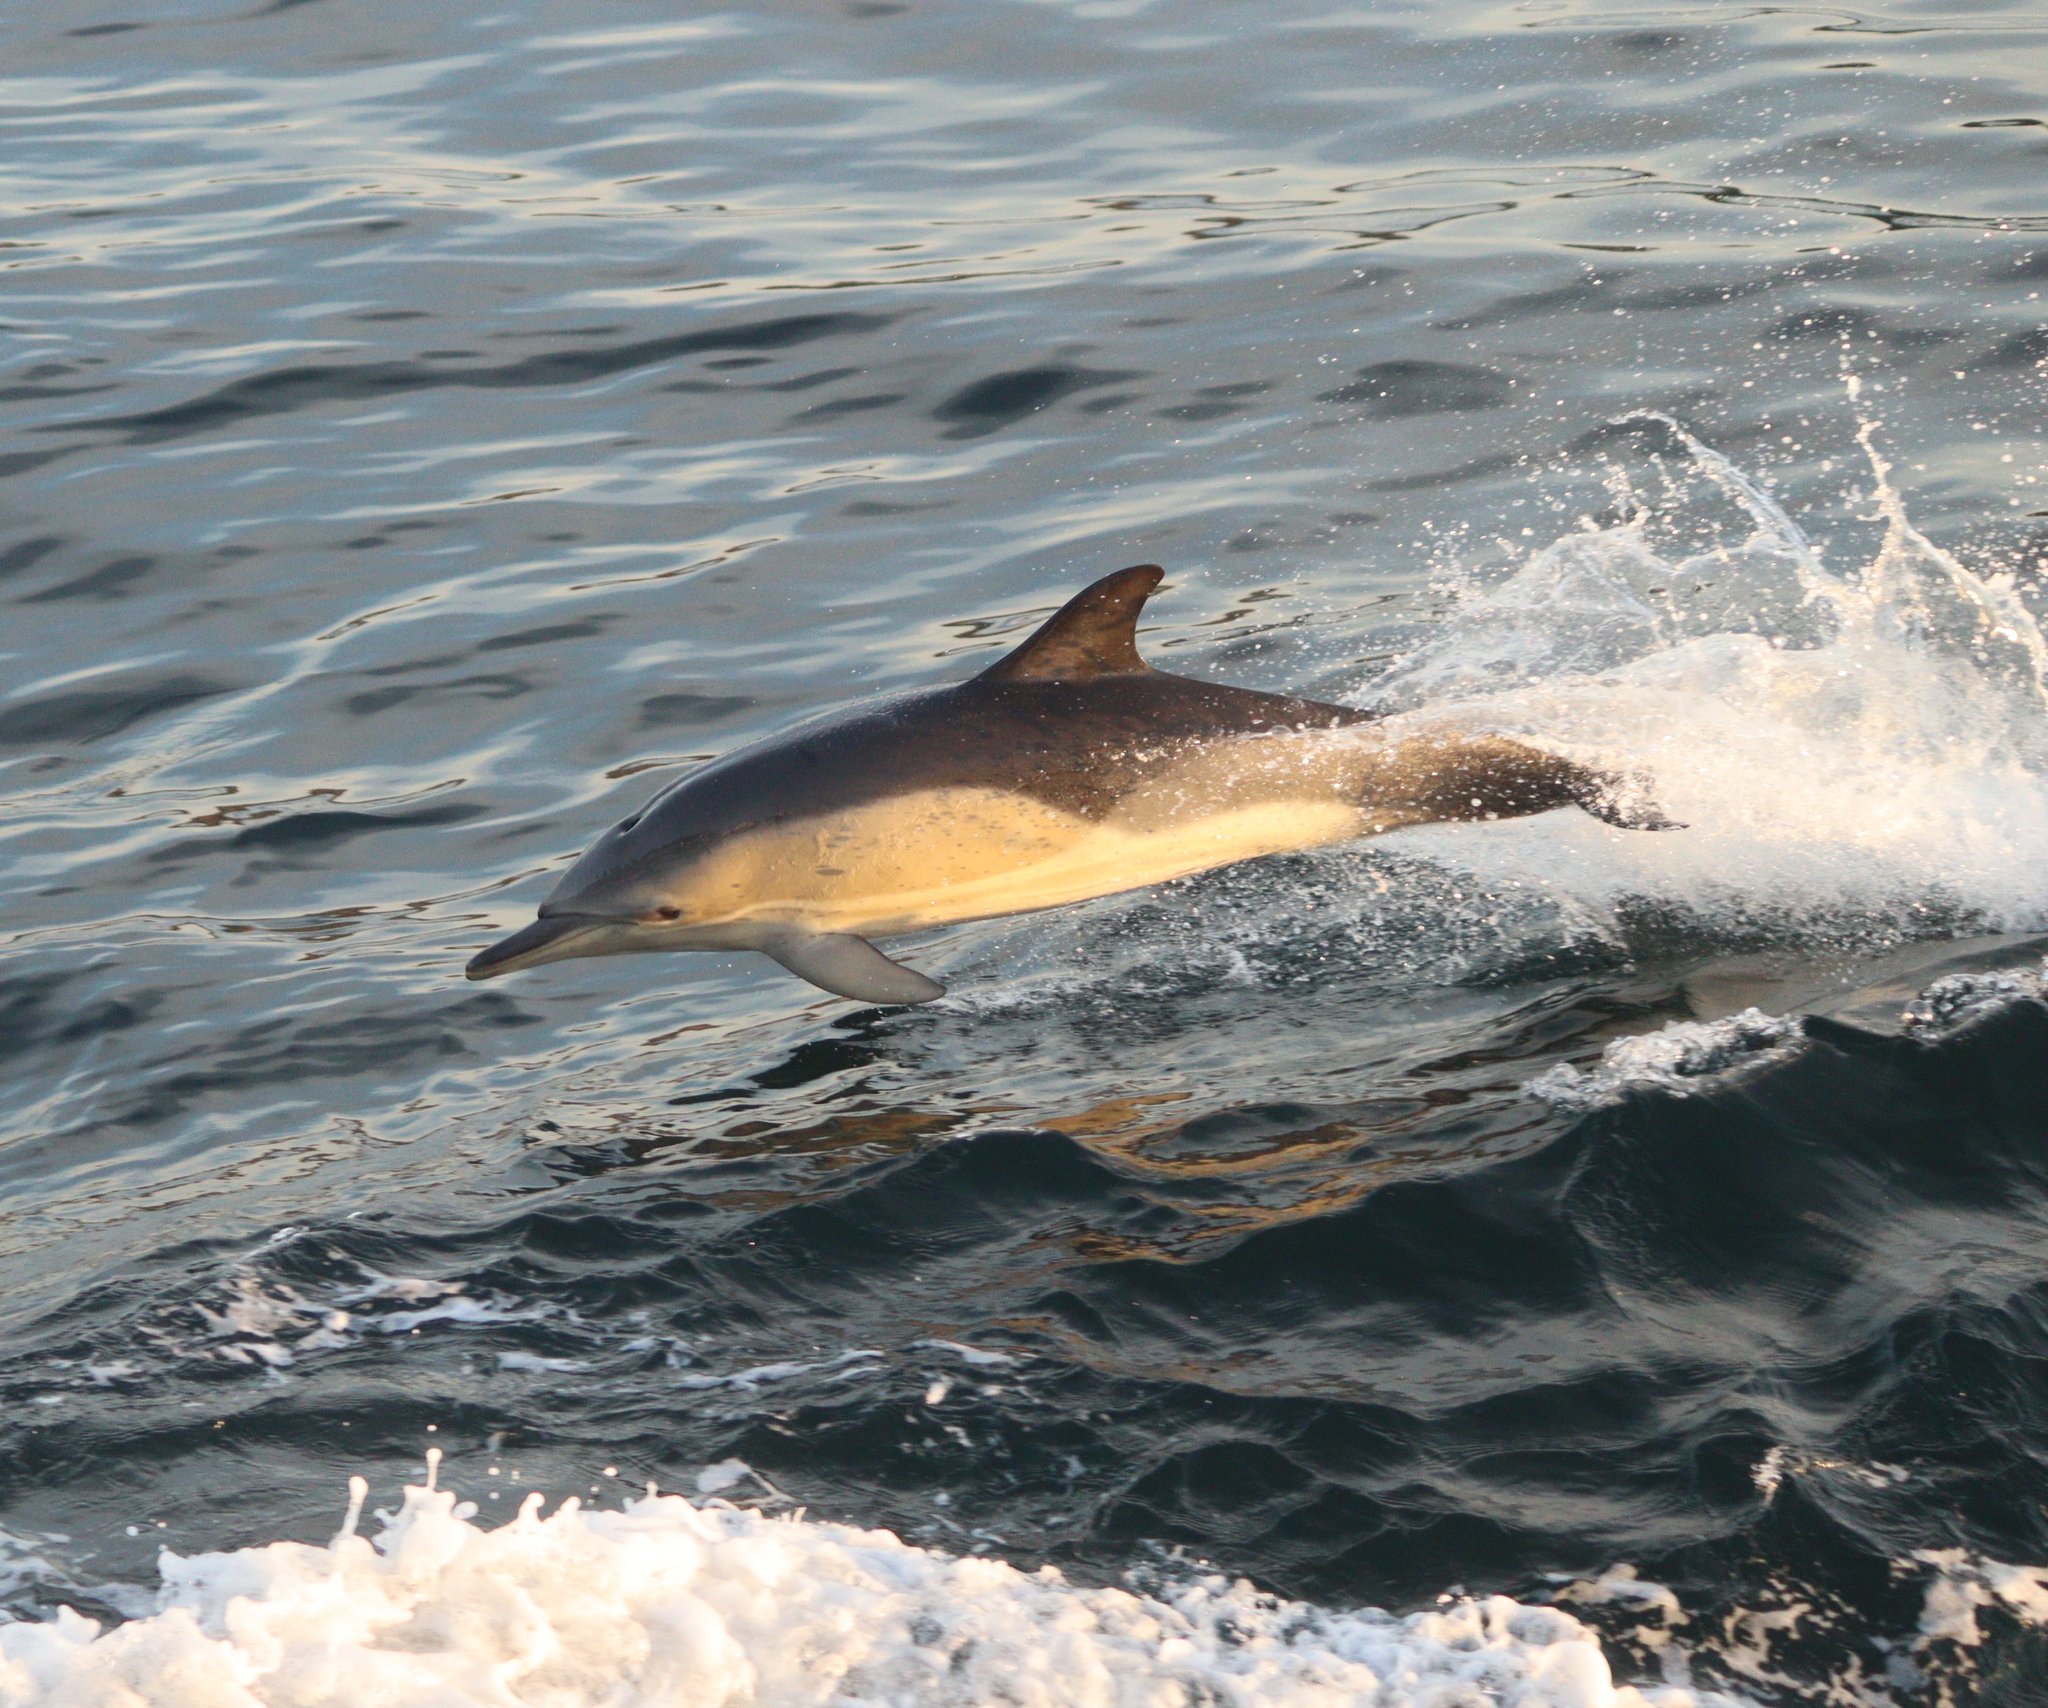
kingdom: Animalia
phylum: Chordata
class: Mammalia
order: Cetacea
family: Delphinidae
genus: Delphinus
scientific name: Delphinus delphis
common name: Common dolphin
